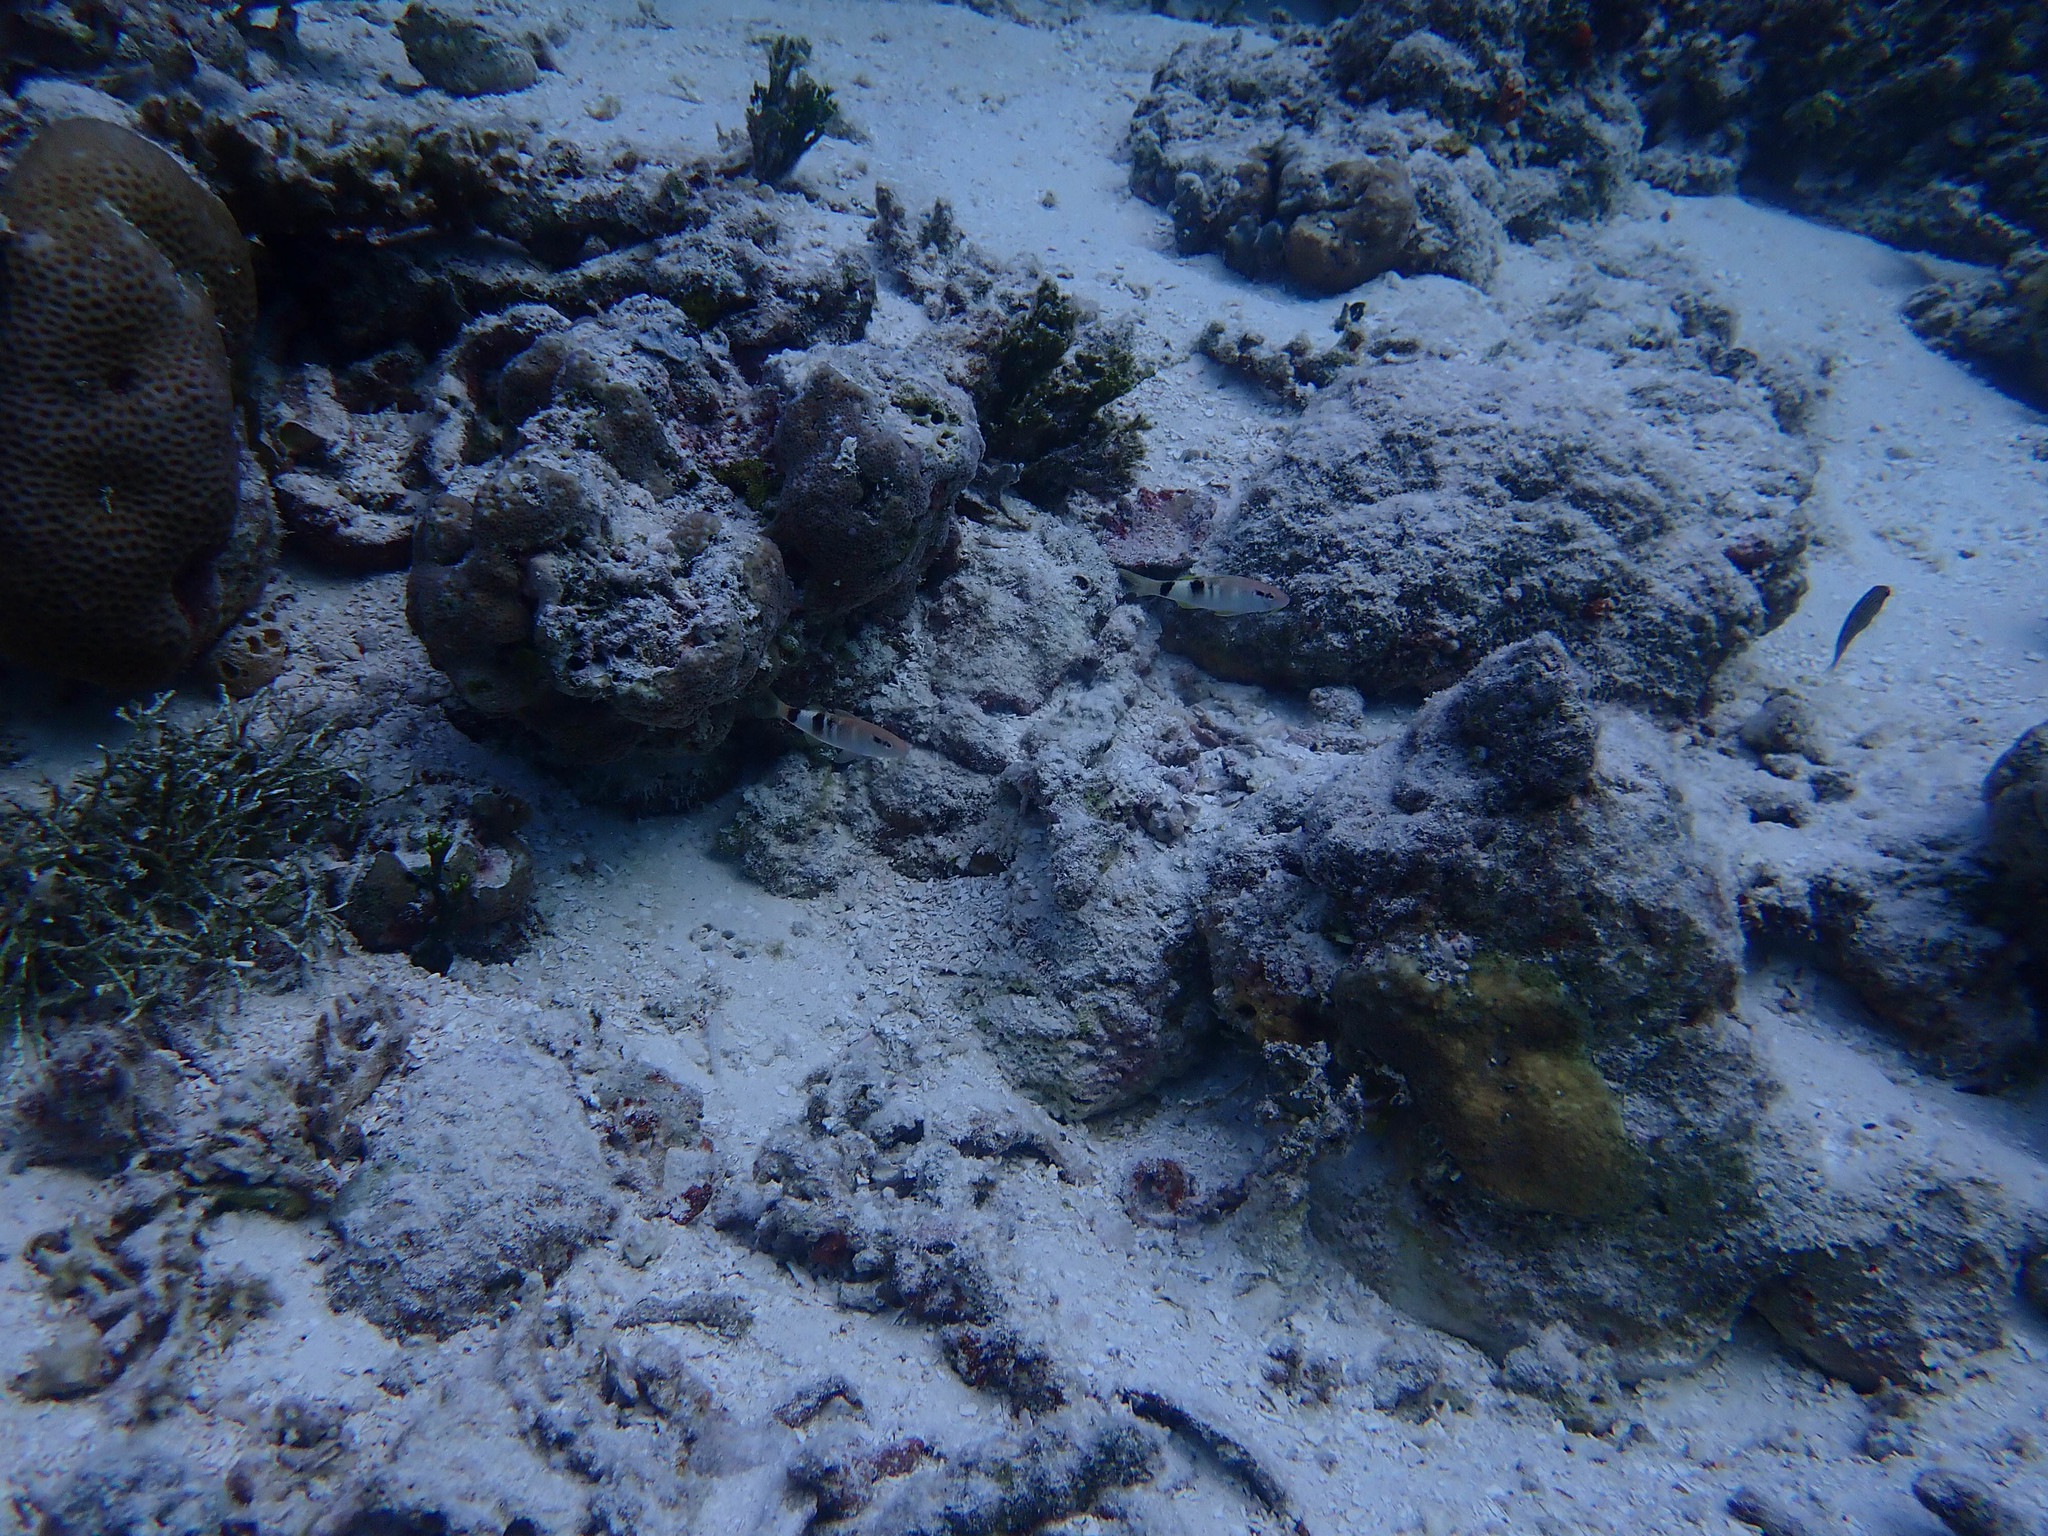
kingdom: Animalia
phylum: Chordata
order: Perciformes
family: Mullidae
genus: Parupeneus
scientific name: Parupeneus multifasciatus
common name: Manybar goatfish
